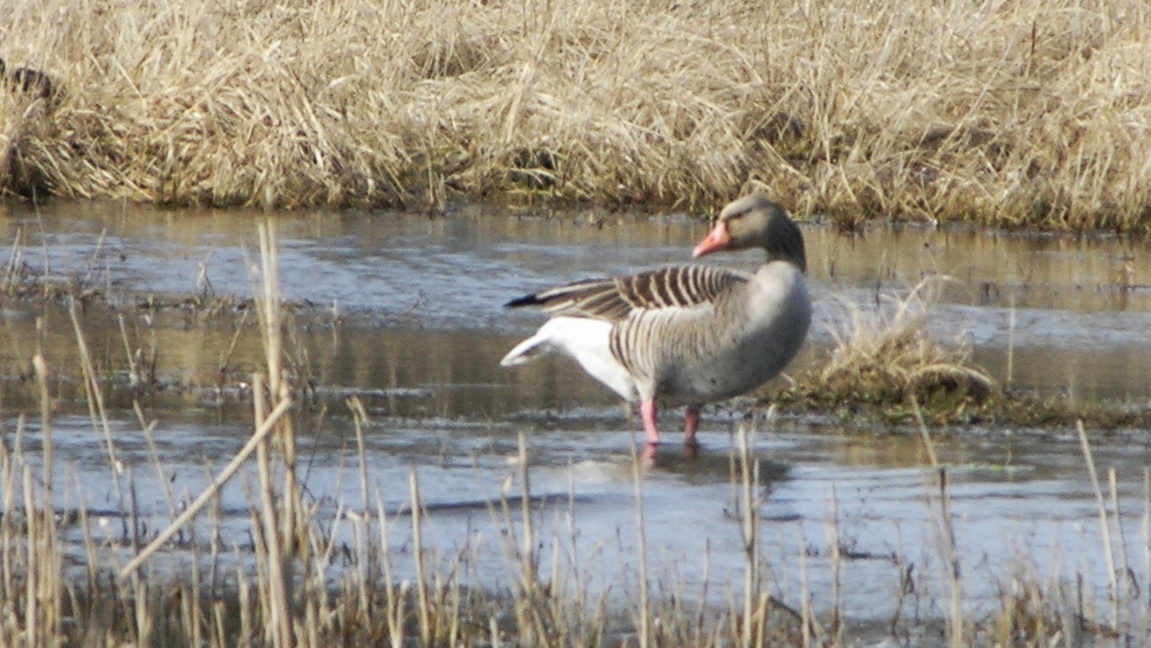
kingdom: Animalia
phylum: Chordata
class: Aves
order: Anseriformes
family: Anatidae
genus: Anser
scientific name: Anser anser
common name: Greylag goose
